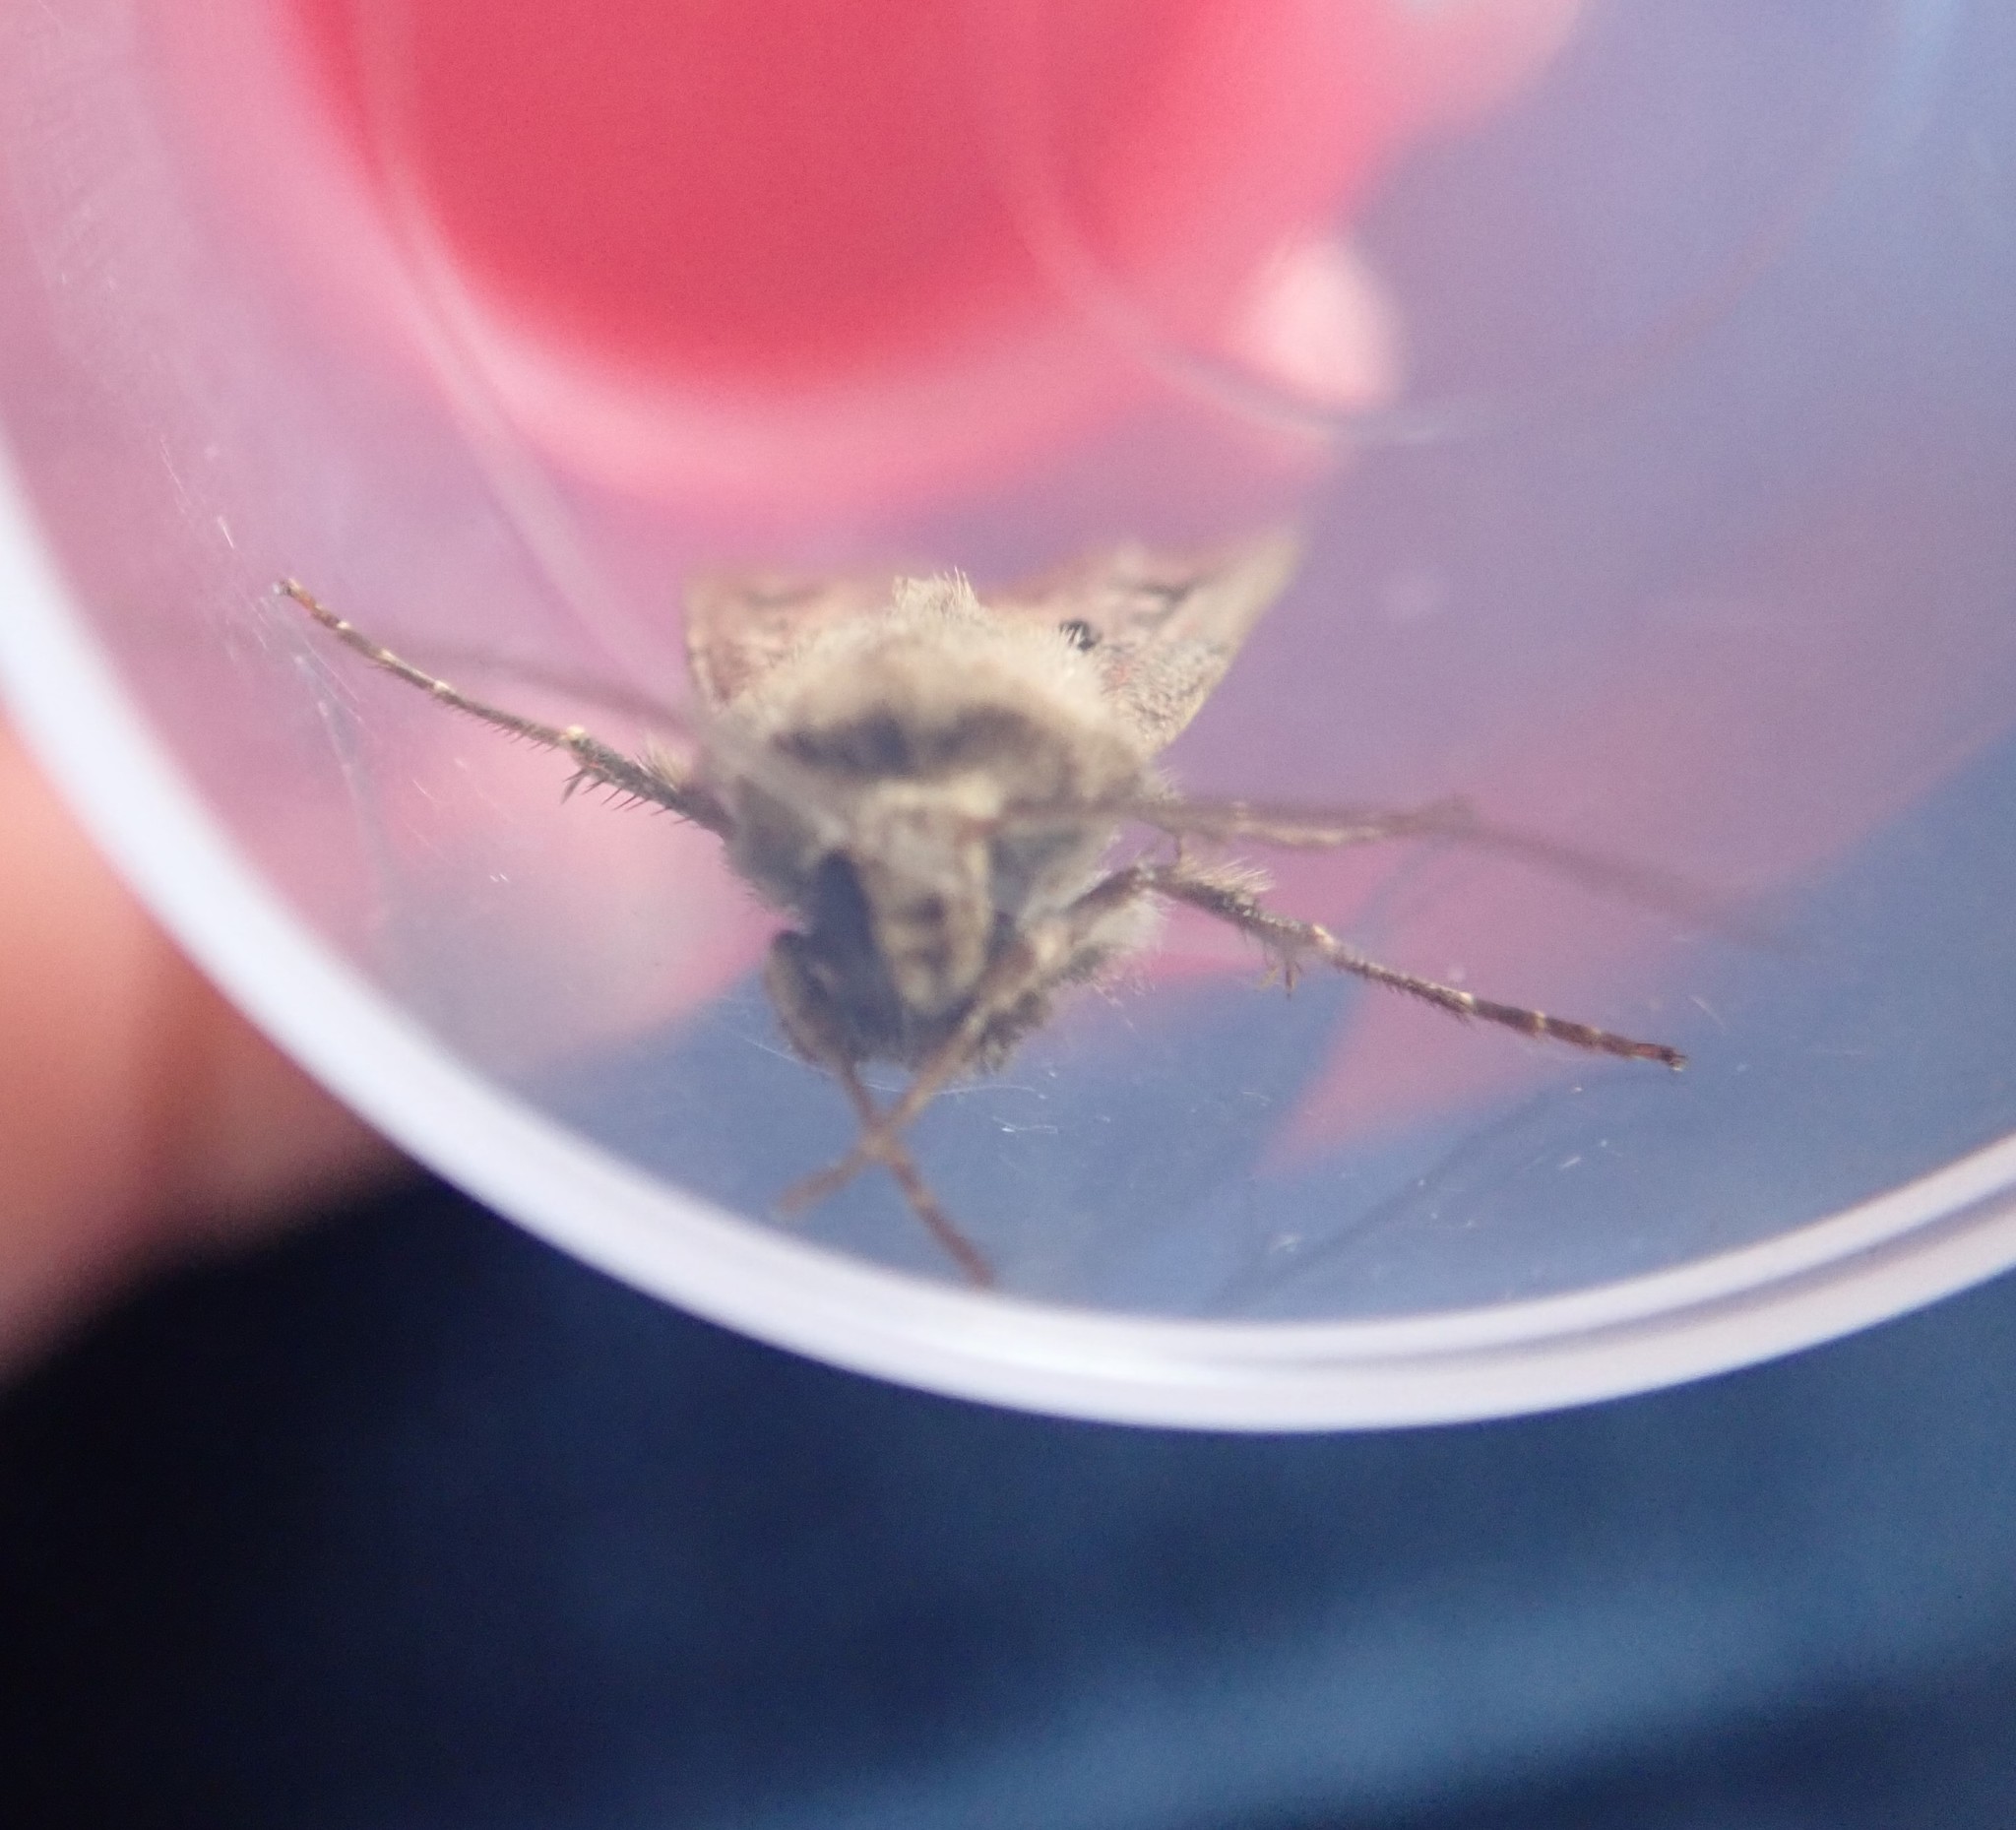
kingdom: Animalia
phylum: Arthropoda
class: Insecta
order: Lepidoptera
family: Noctuidae
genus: Agrotis
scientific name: Agrotis exclamationis
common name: Heart and dart
